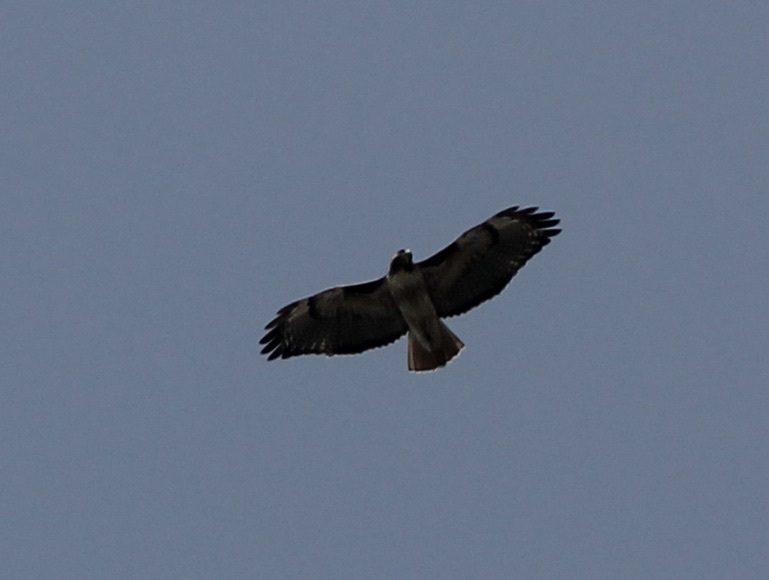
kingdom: Animalia
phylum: Chordata
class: Aves
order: Accipitriformes
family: Accipitridae
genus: Buteo
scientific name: Buteo jamaicensis
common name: Red-tailed hawk
